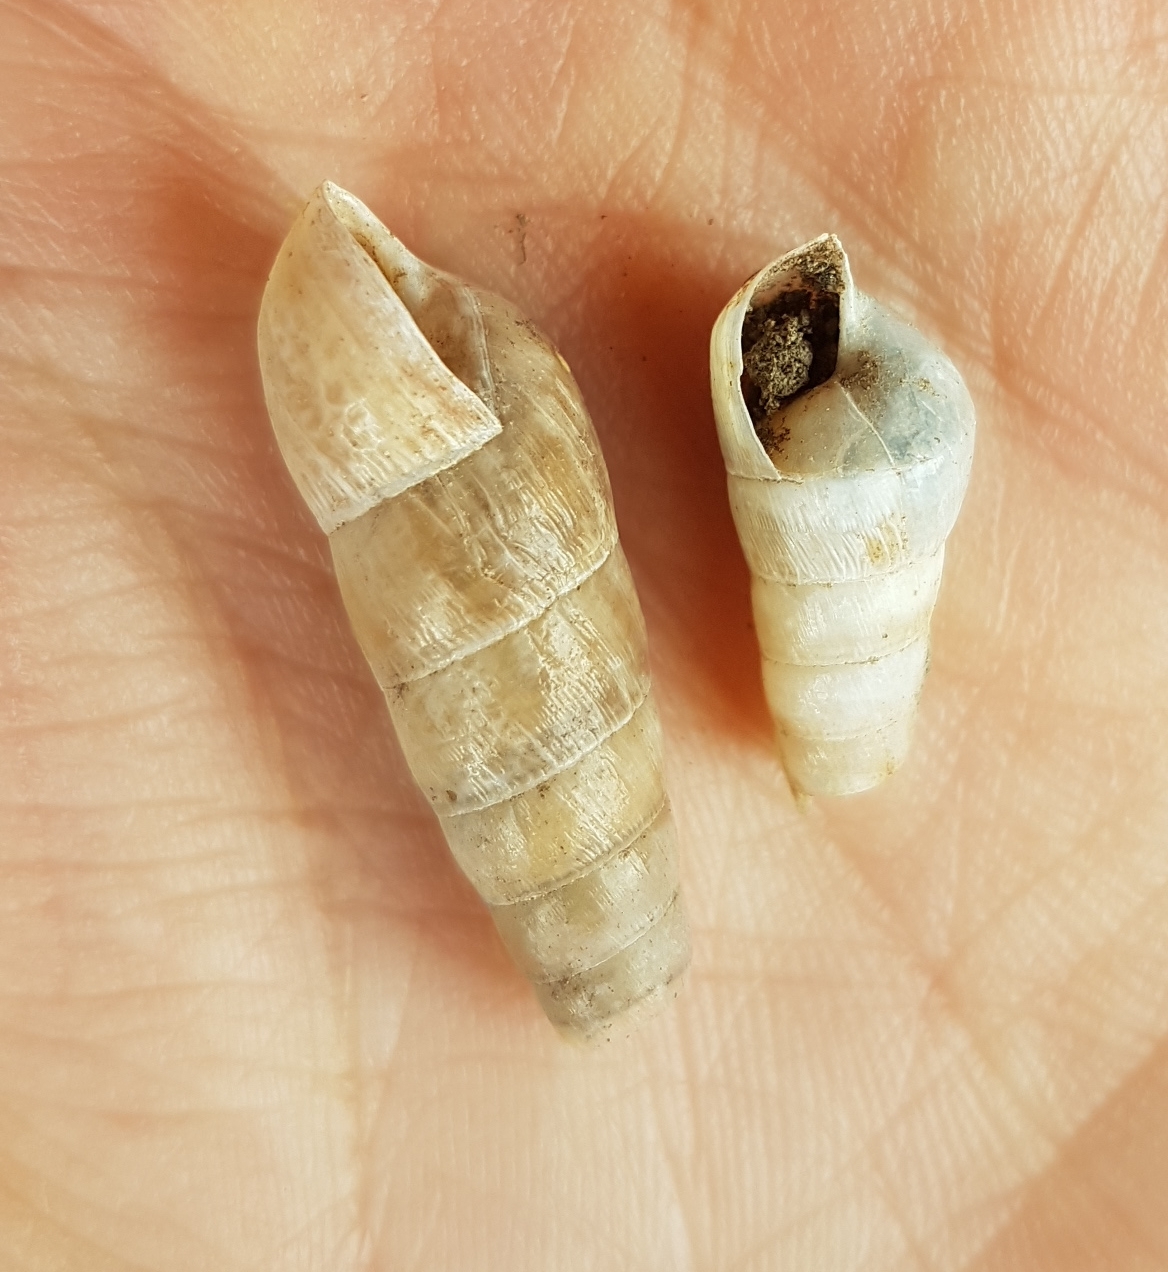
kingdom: Animalia
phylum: Mollusca
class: Gastropoda
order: Stylommatophora
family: Achatinidae
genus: Rumina
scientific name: Rumina decollata
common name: Decollate snail
